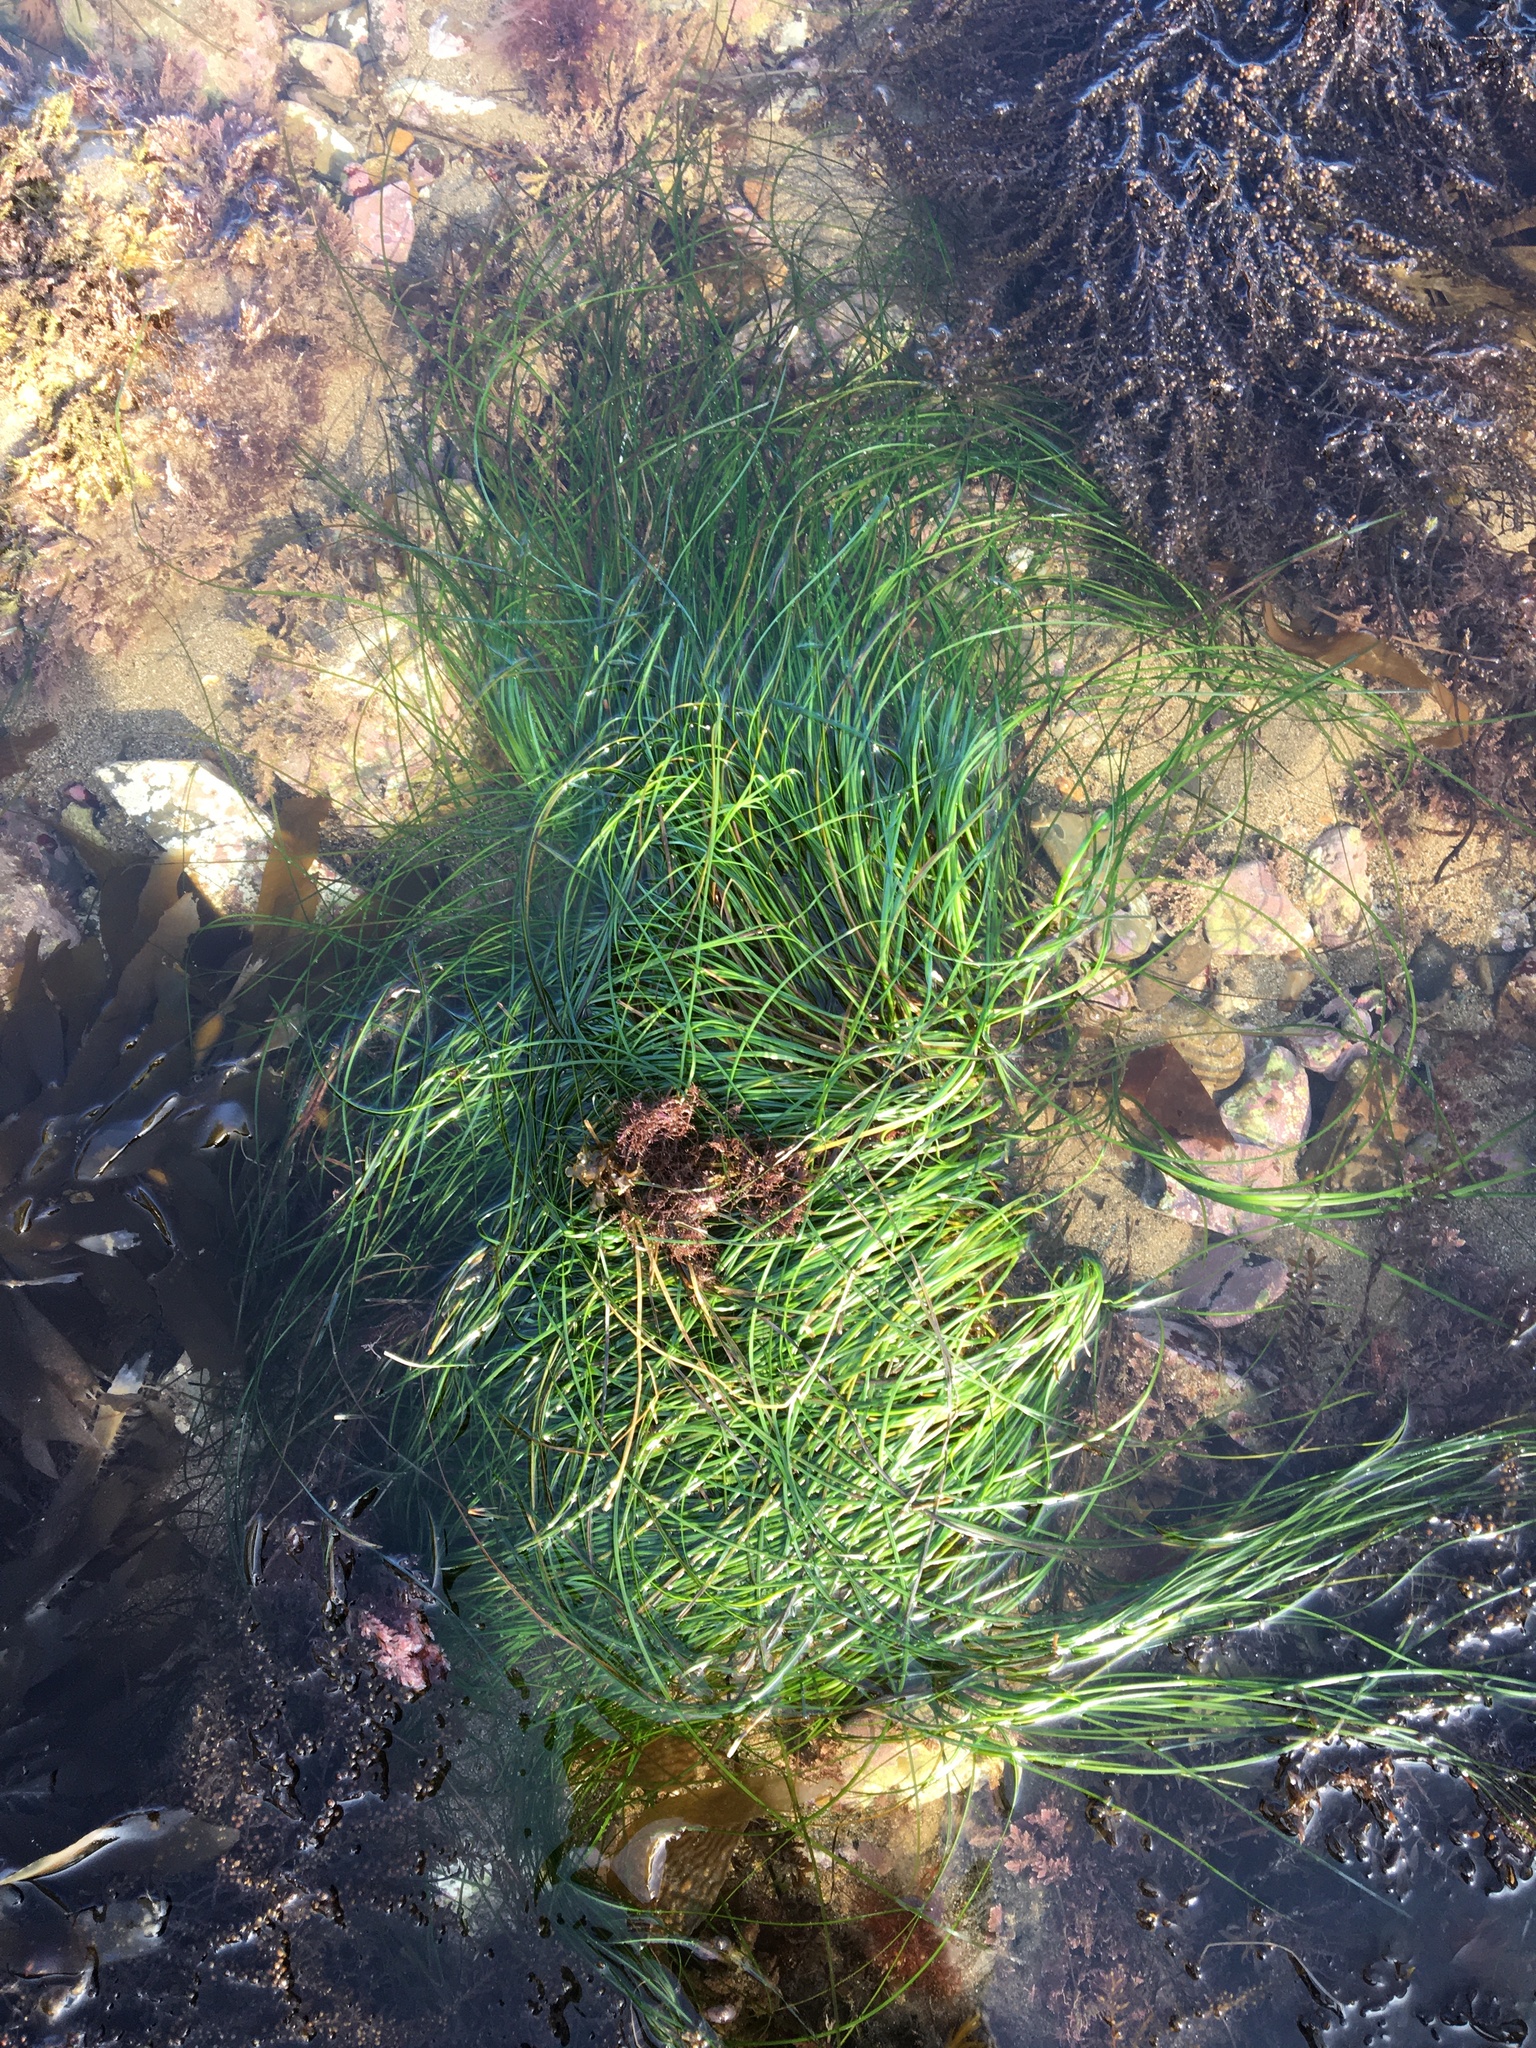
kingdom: Plantae
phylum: Tracheophyta
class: Liliopsida
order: Alismatales
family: Zosteraceae
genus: Phyllospadix
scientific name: Phyllospadix torreyi
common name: Surfgrass
